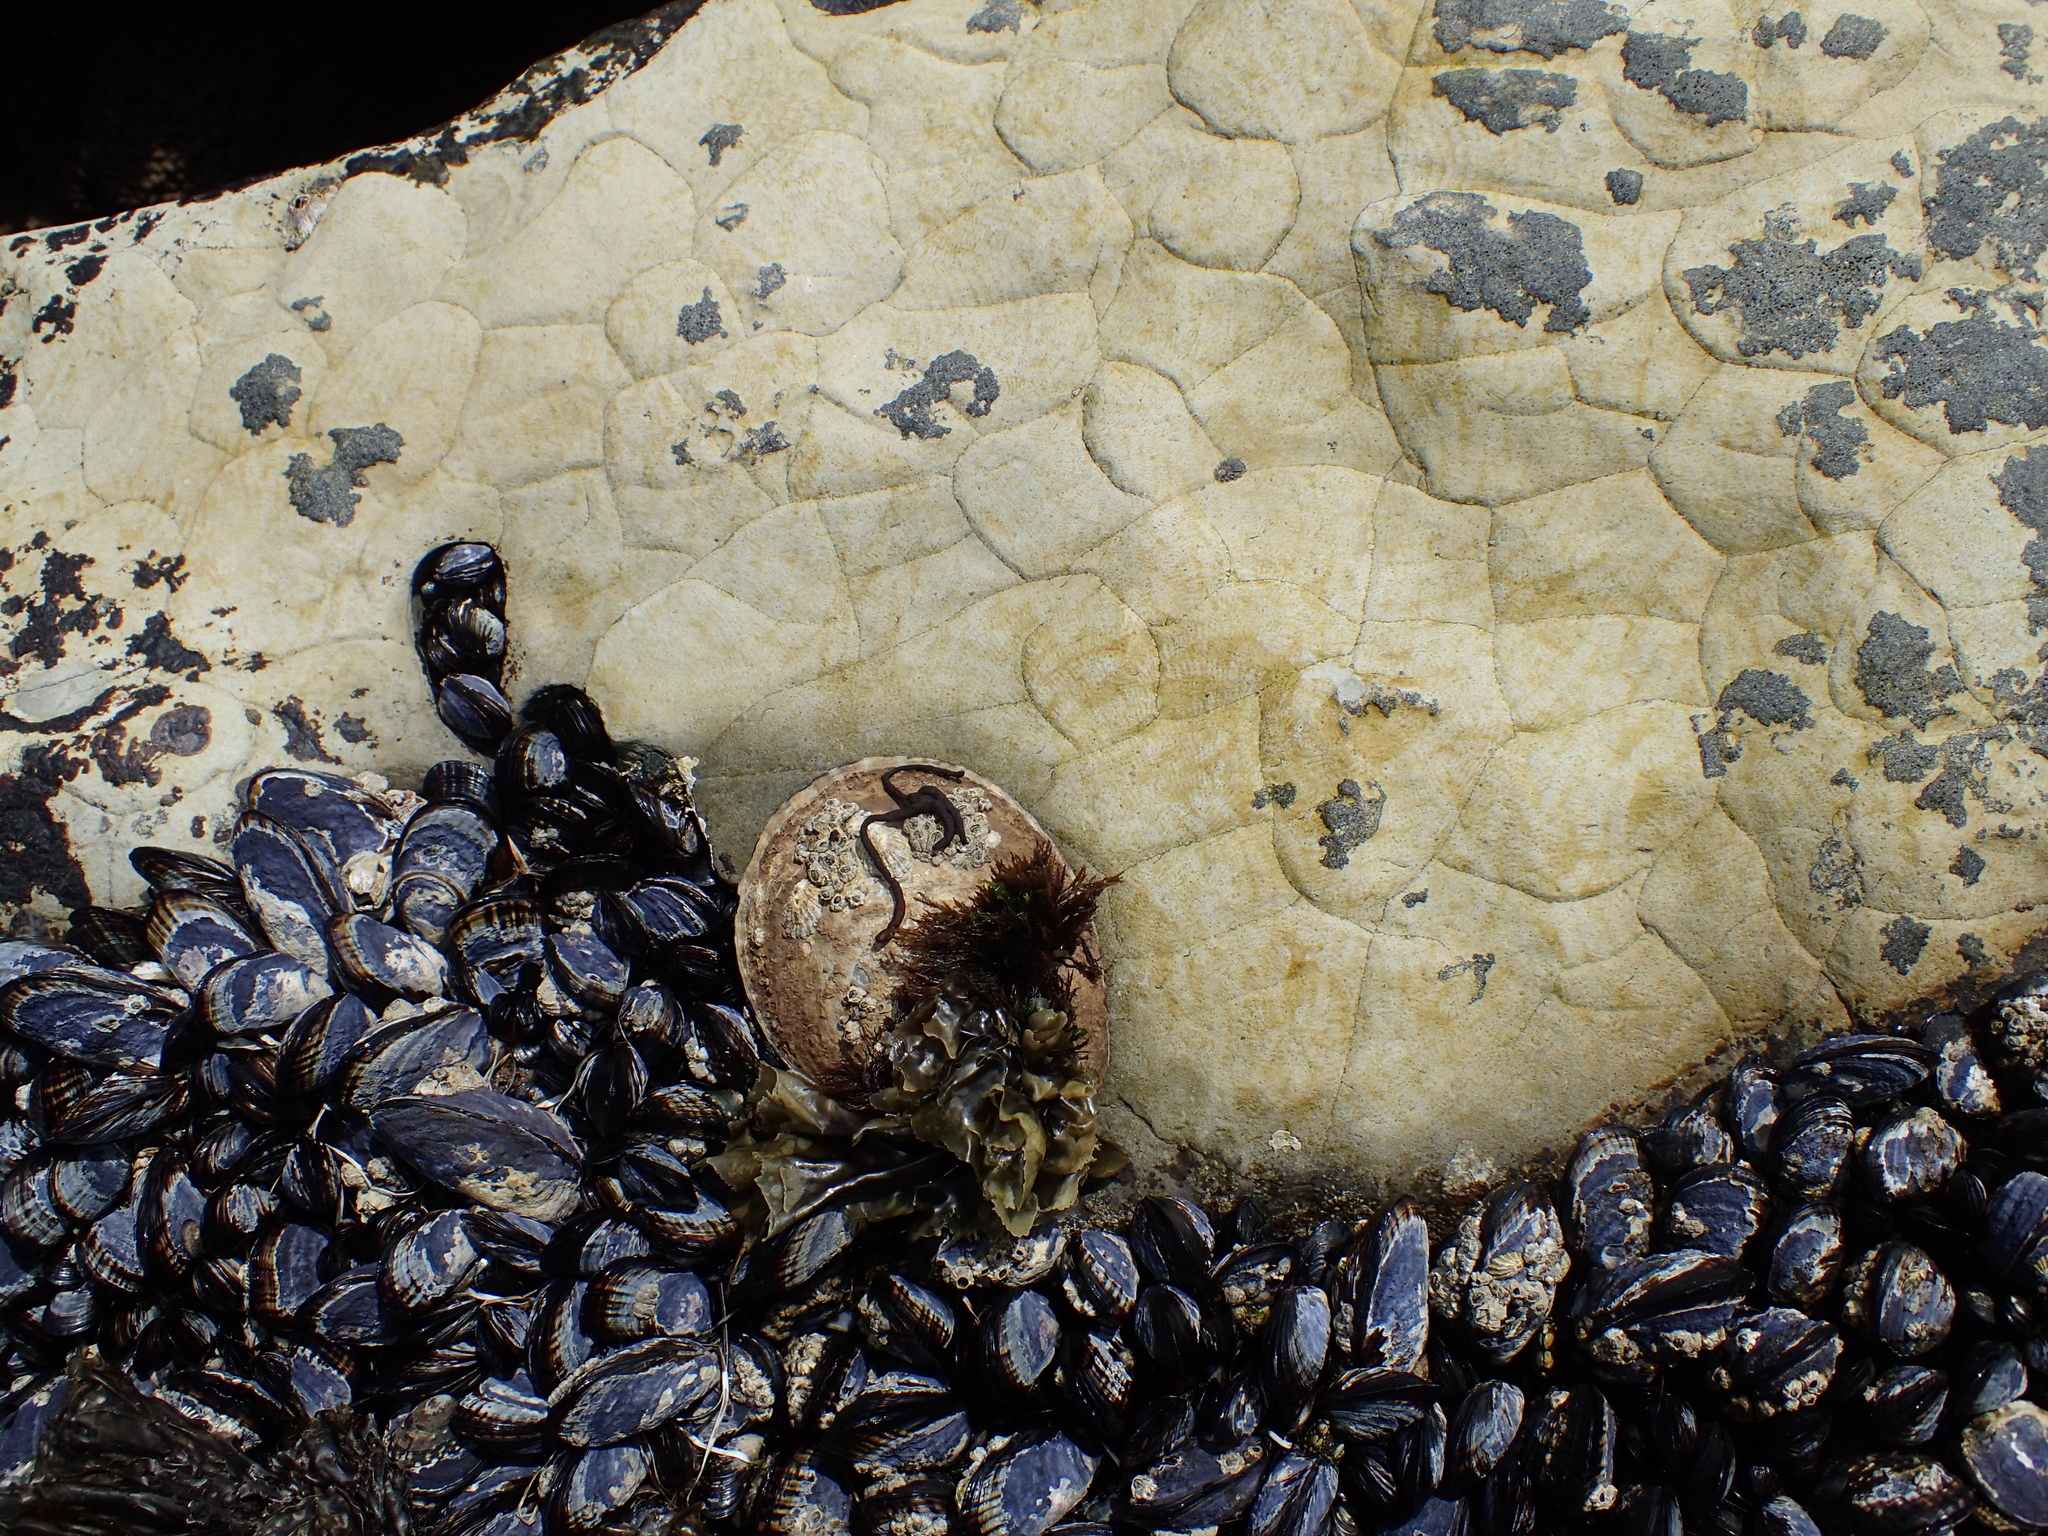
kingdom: Animalia
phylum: Mollusca
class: Bivalvia
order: Mytilida
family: Mytilidae
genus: Mytilus
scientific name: Mytilus californianus
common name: California mussel
